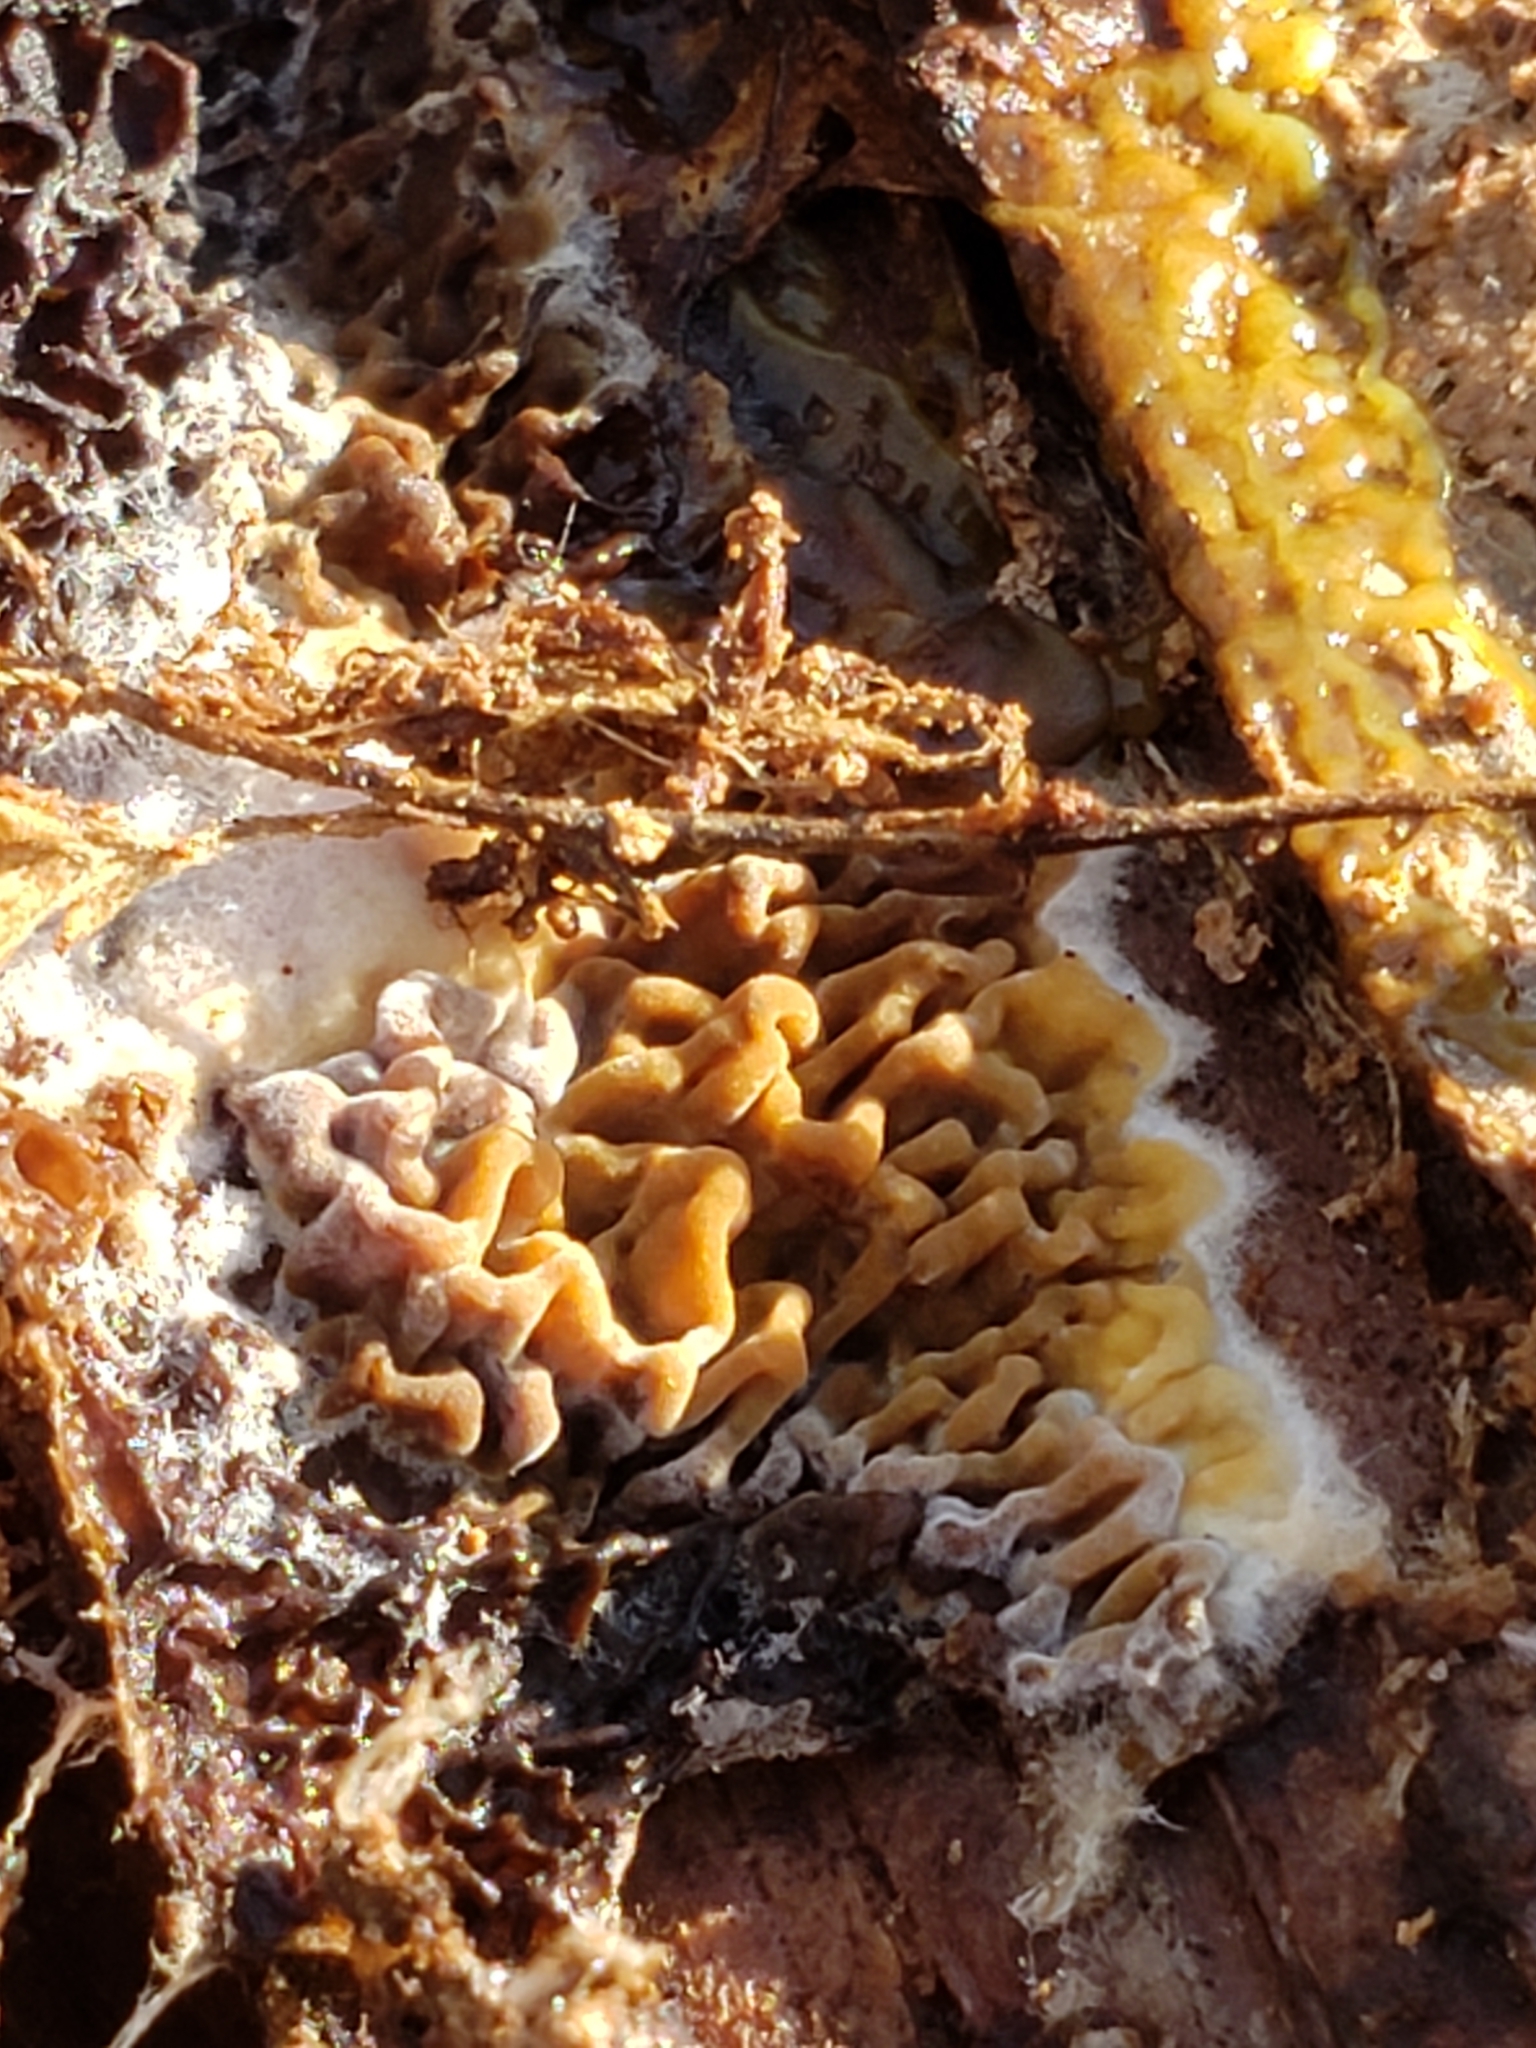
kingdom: Fungi
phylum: Basidiomycota
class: Agaricomycetes
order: Boletales
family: Serpulaceae
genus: Serpula
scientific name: Serpula himantioides
